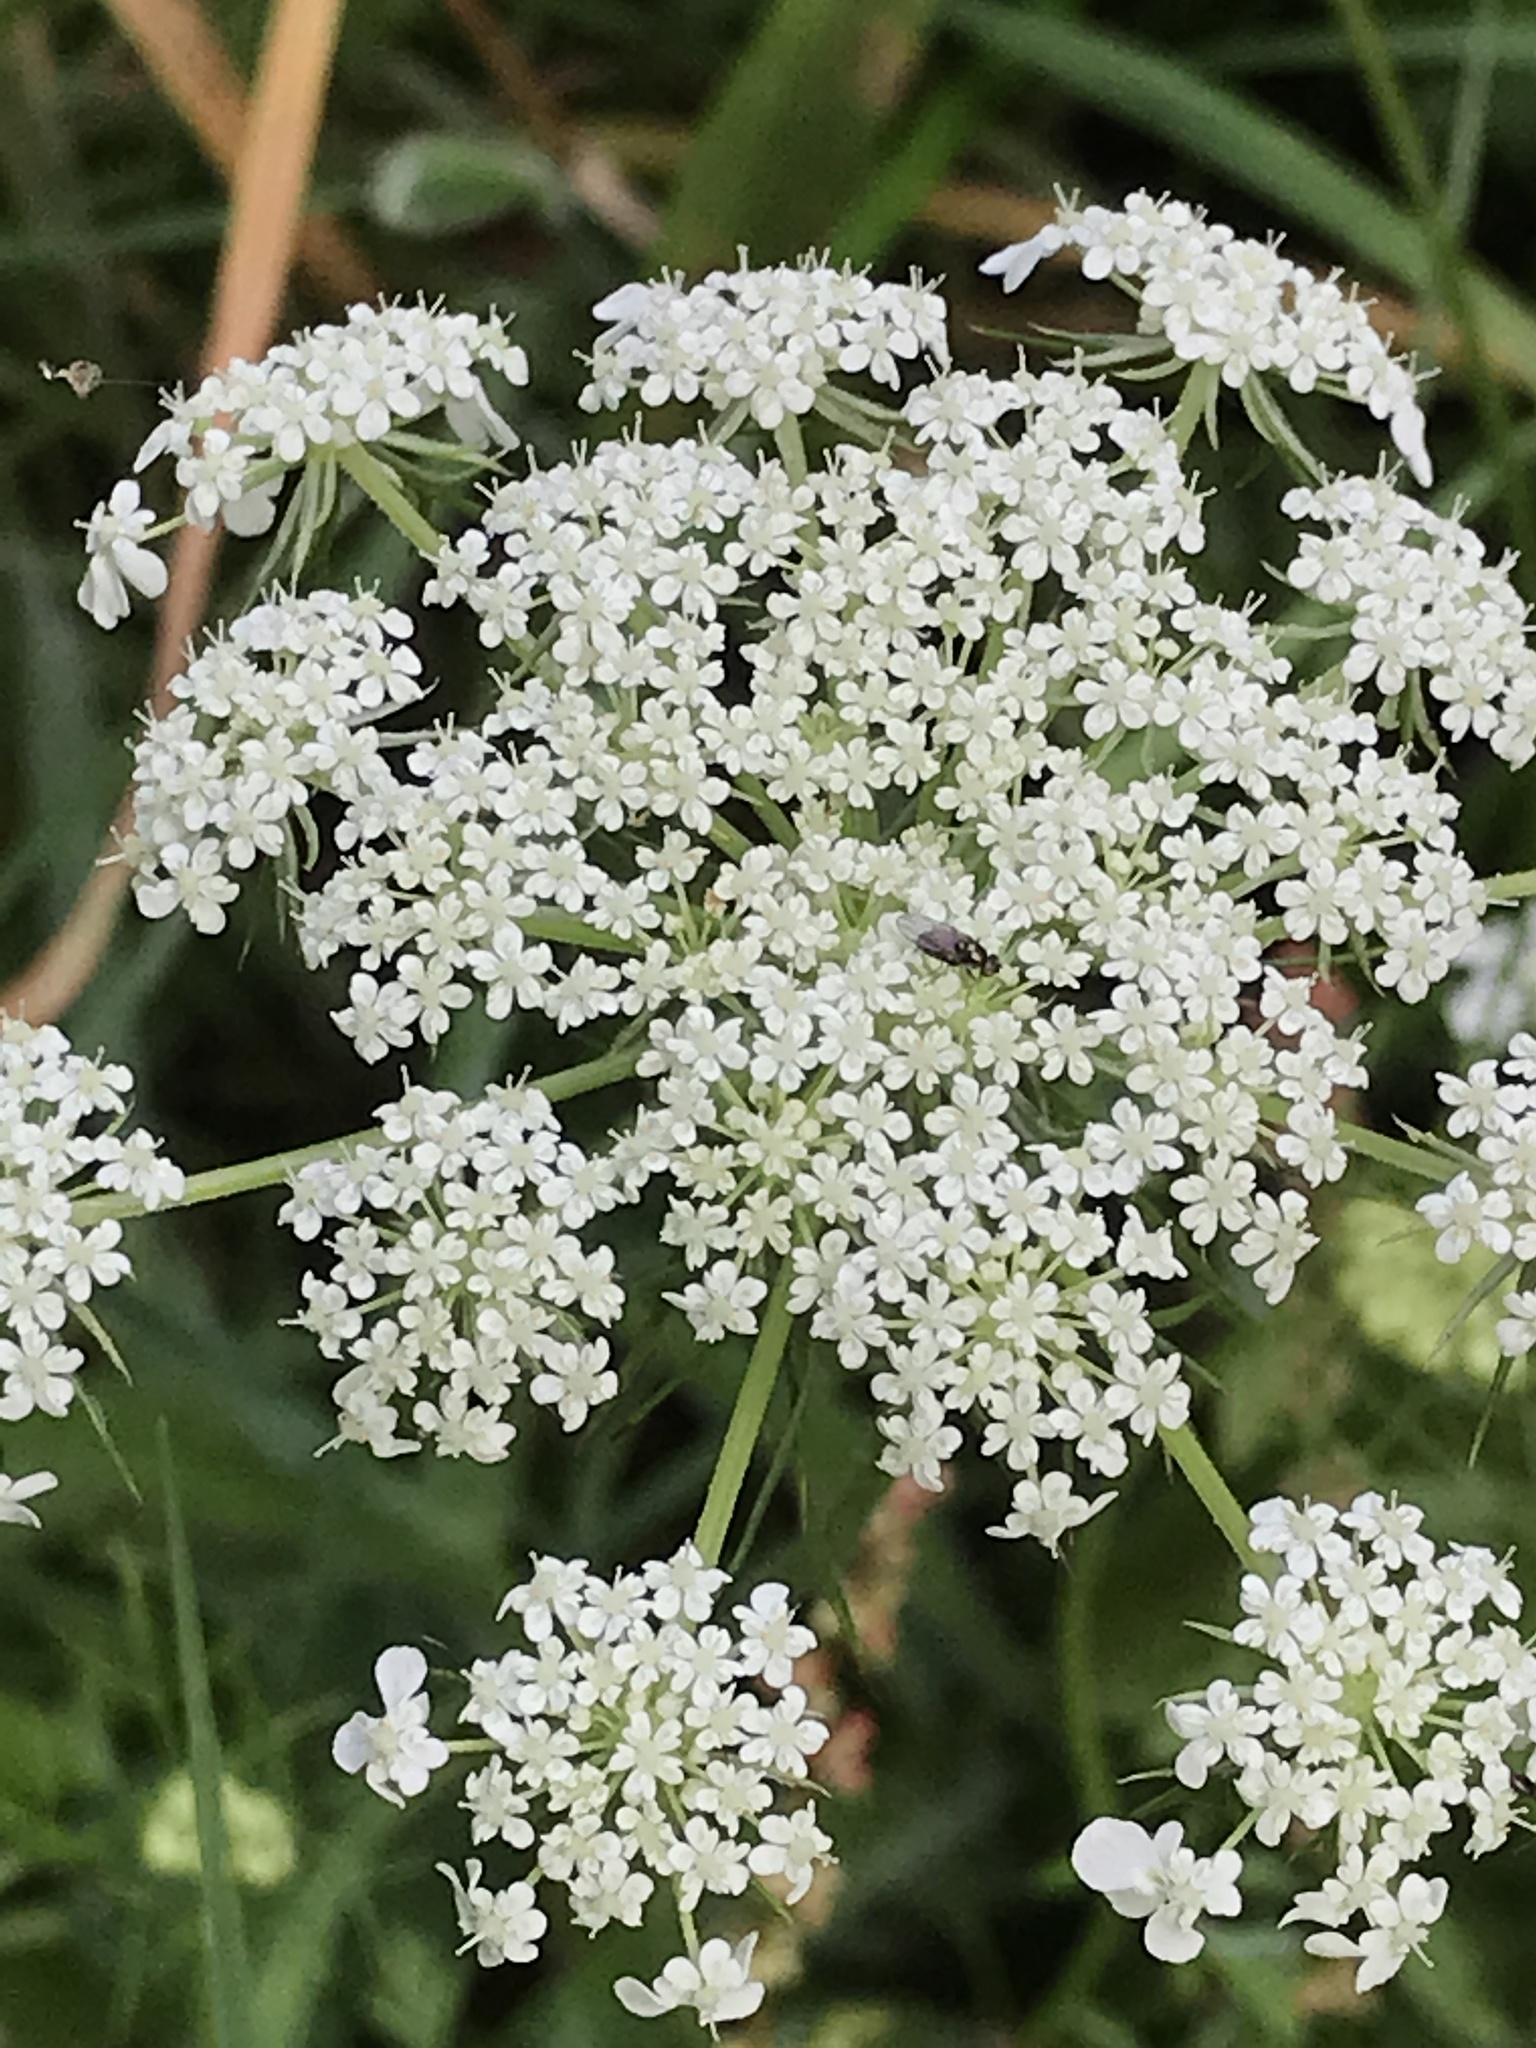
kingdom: Plantae
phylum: Tracheophyta
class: Magnoliopsida
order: Apiales
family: Apiaceae
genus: Daucus
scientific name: Daucus carota
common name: Wild carrot
